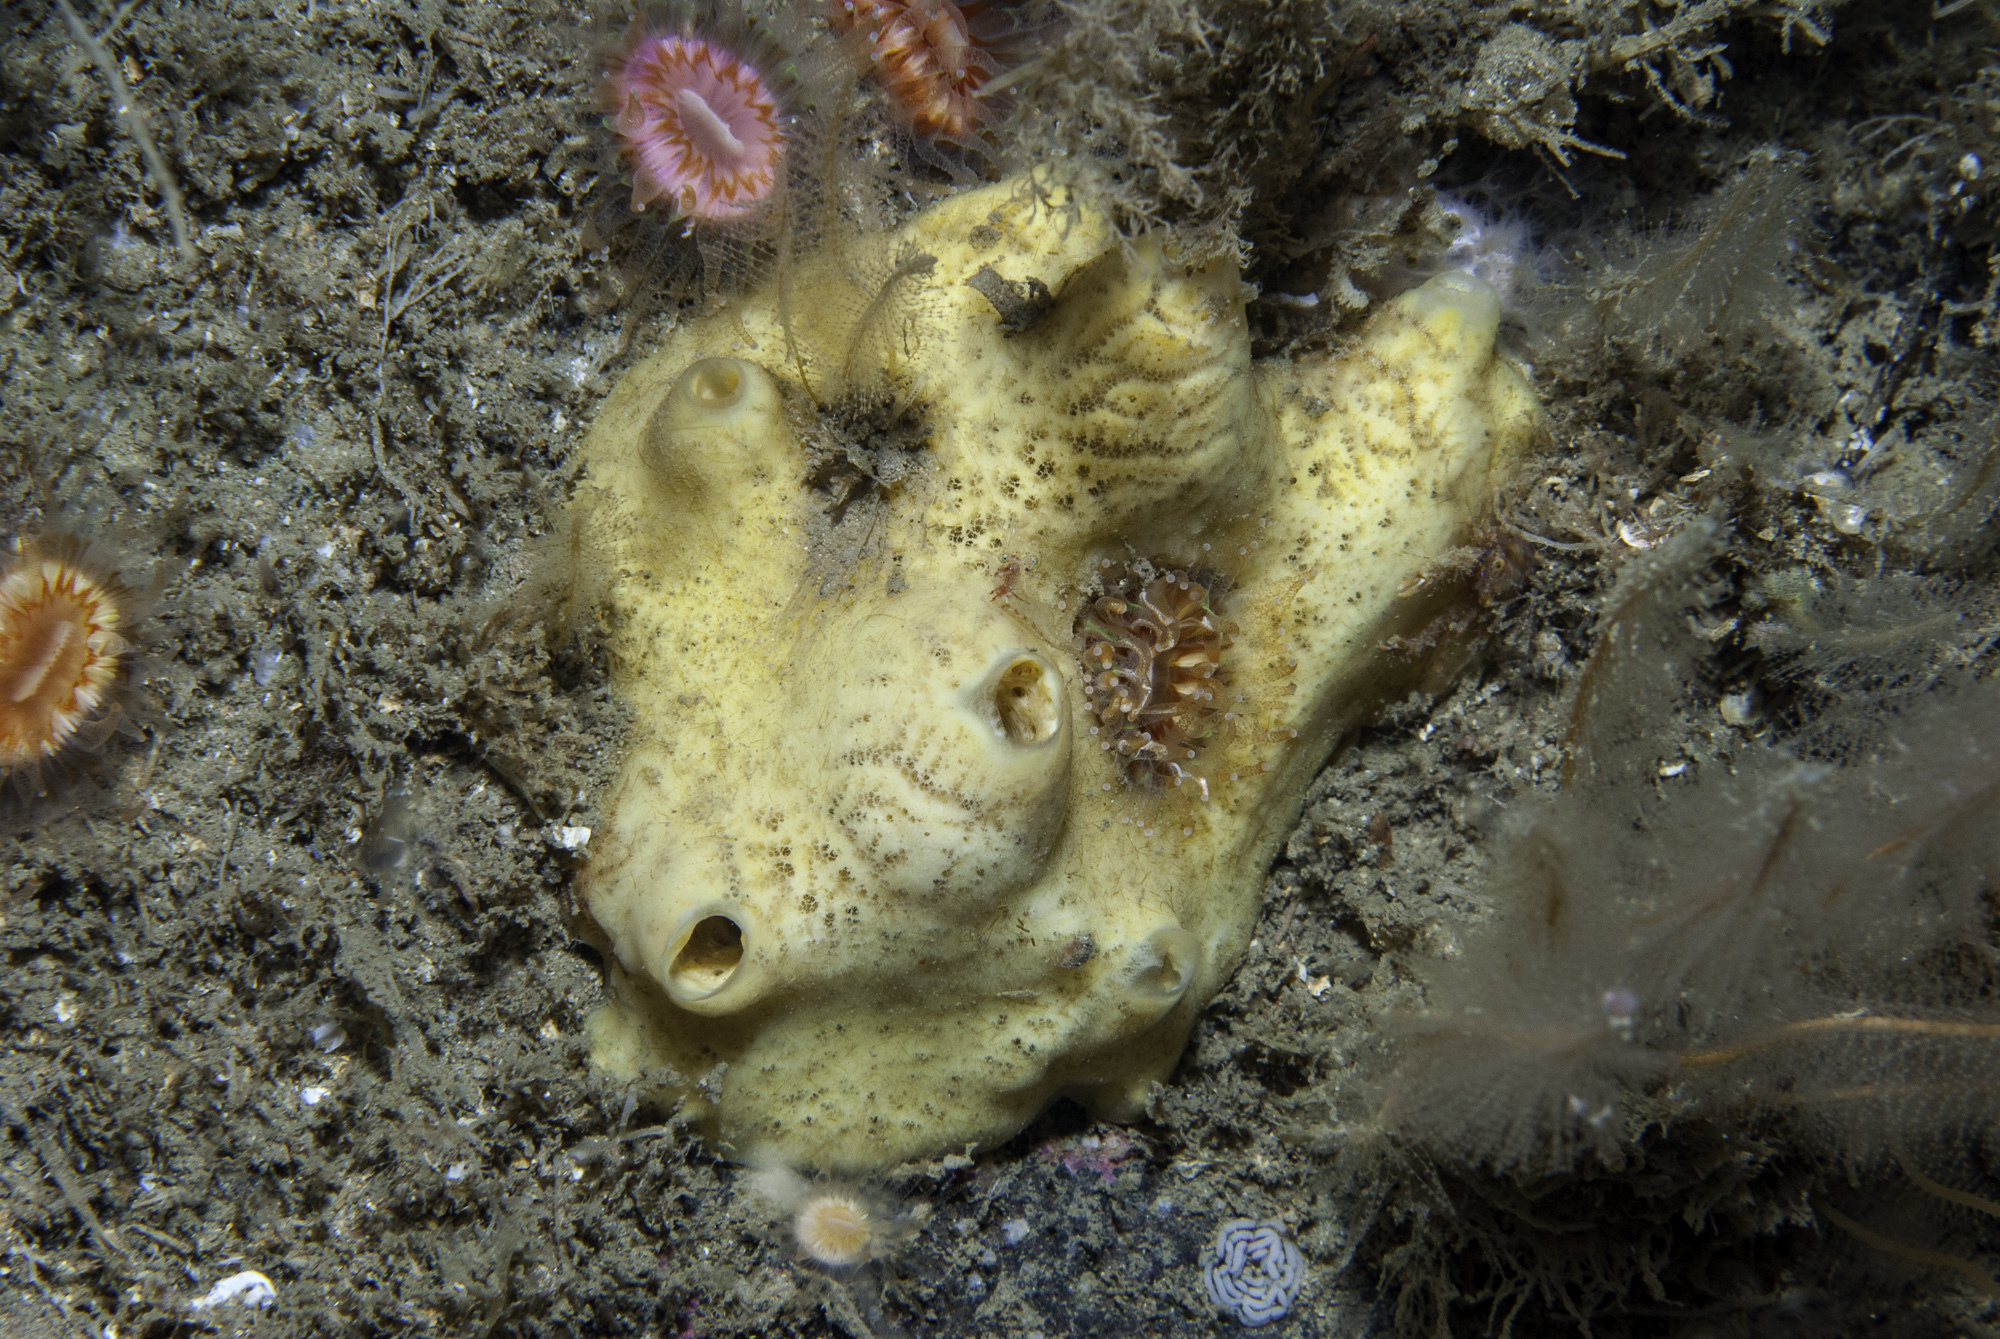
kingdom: Animalia
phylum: Porifera
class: Demospongiae
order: Poecilosclerida
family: Myxillidae
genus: Myxilla
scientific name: Myxilla incrustans
